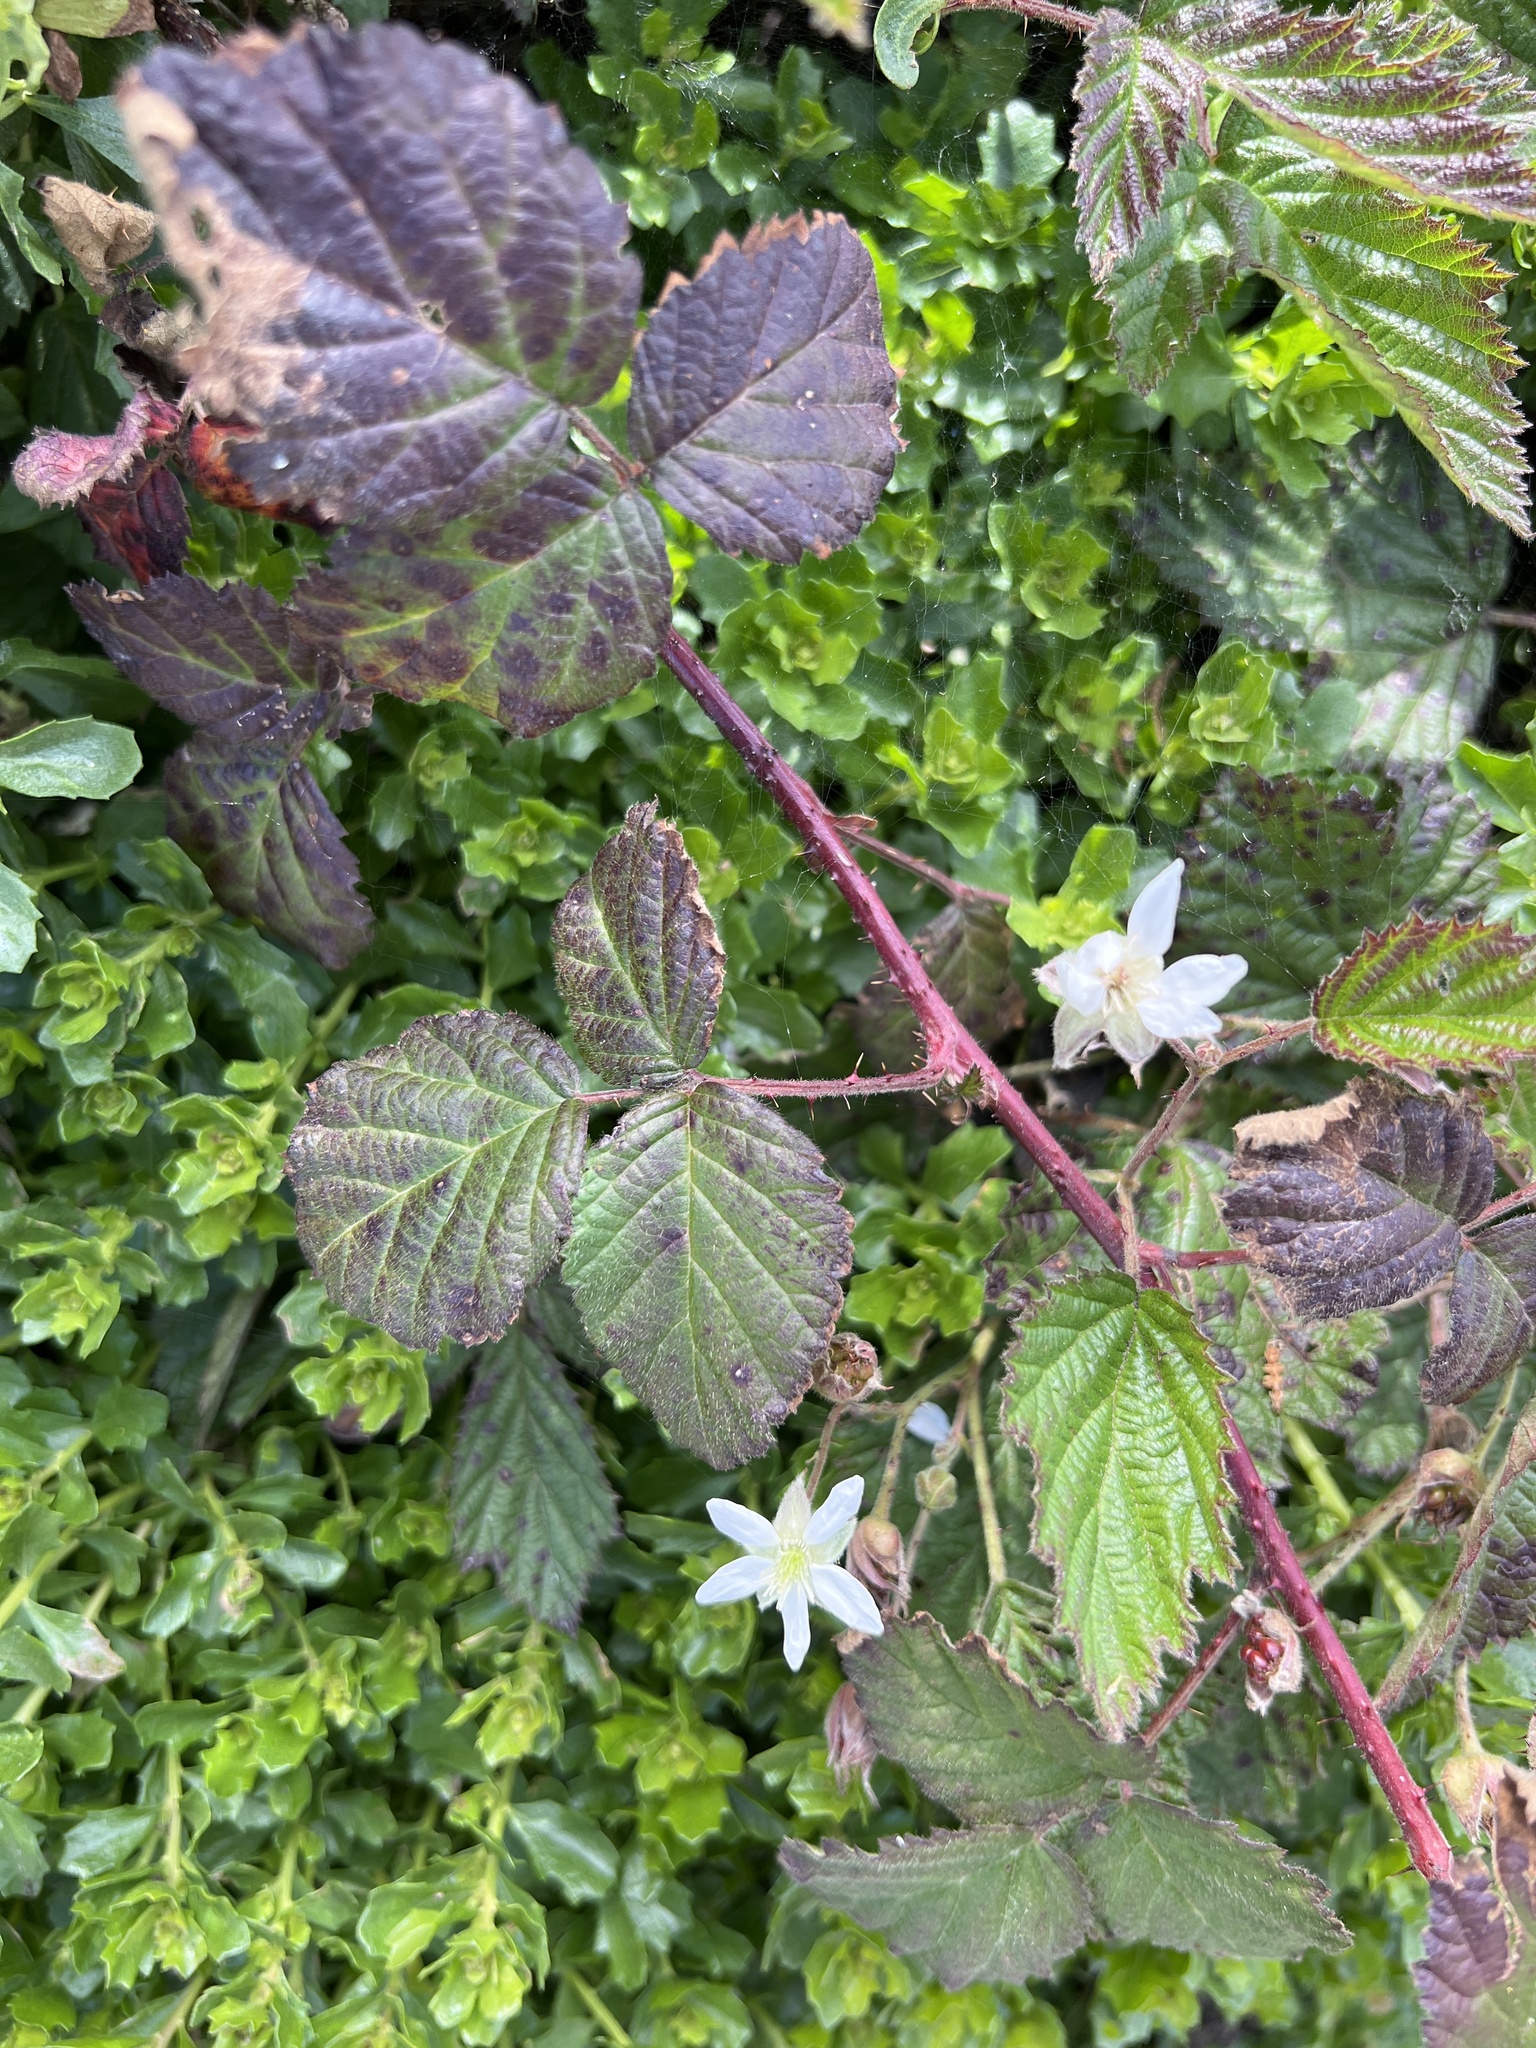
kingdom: Plantae
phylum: Tracheophyta
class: Magnoliopsida
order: Rosales
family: Rosaceae
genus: Rubus
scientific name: Rubus ursinus
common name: Pacific blackberry
